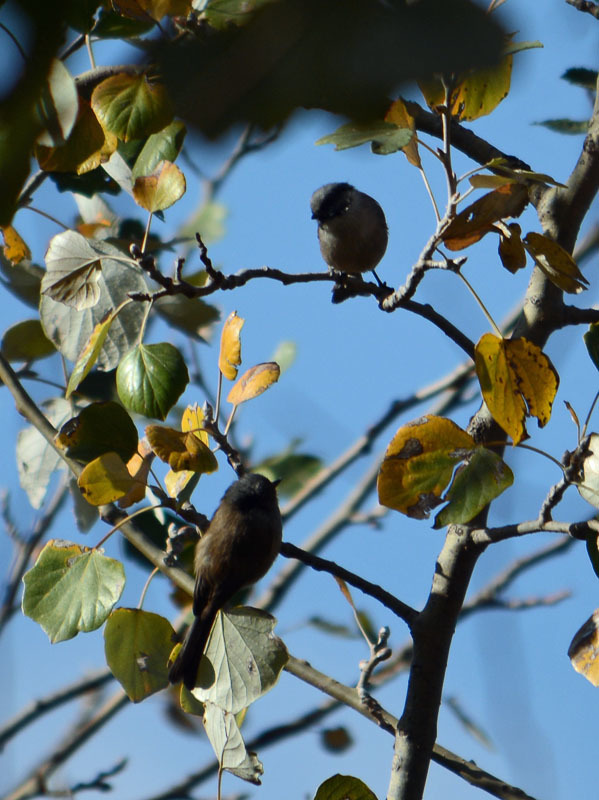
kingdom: Animalia
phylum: Chordata
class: Aves
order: Passeriformes
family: Aegithalidae
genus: Psaltriparus
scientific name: Psaltriparus minimus
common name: American bushtit
